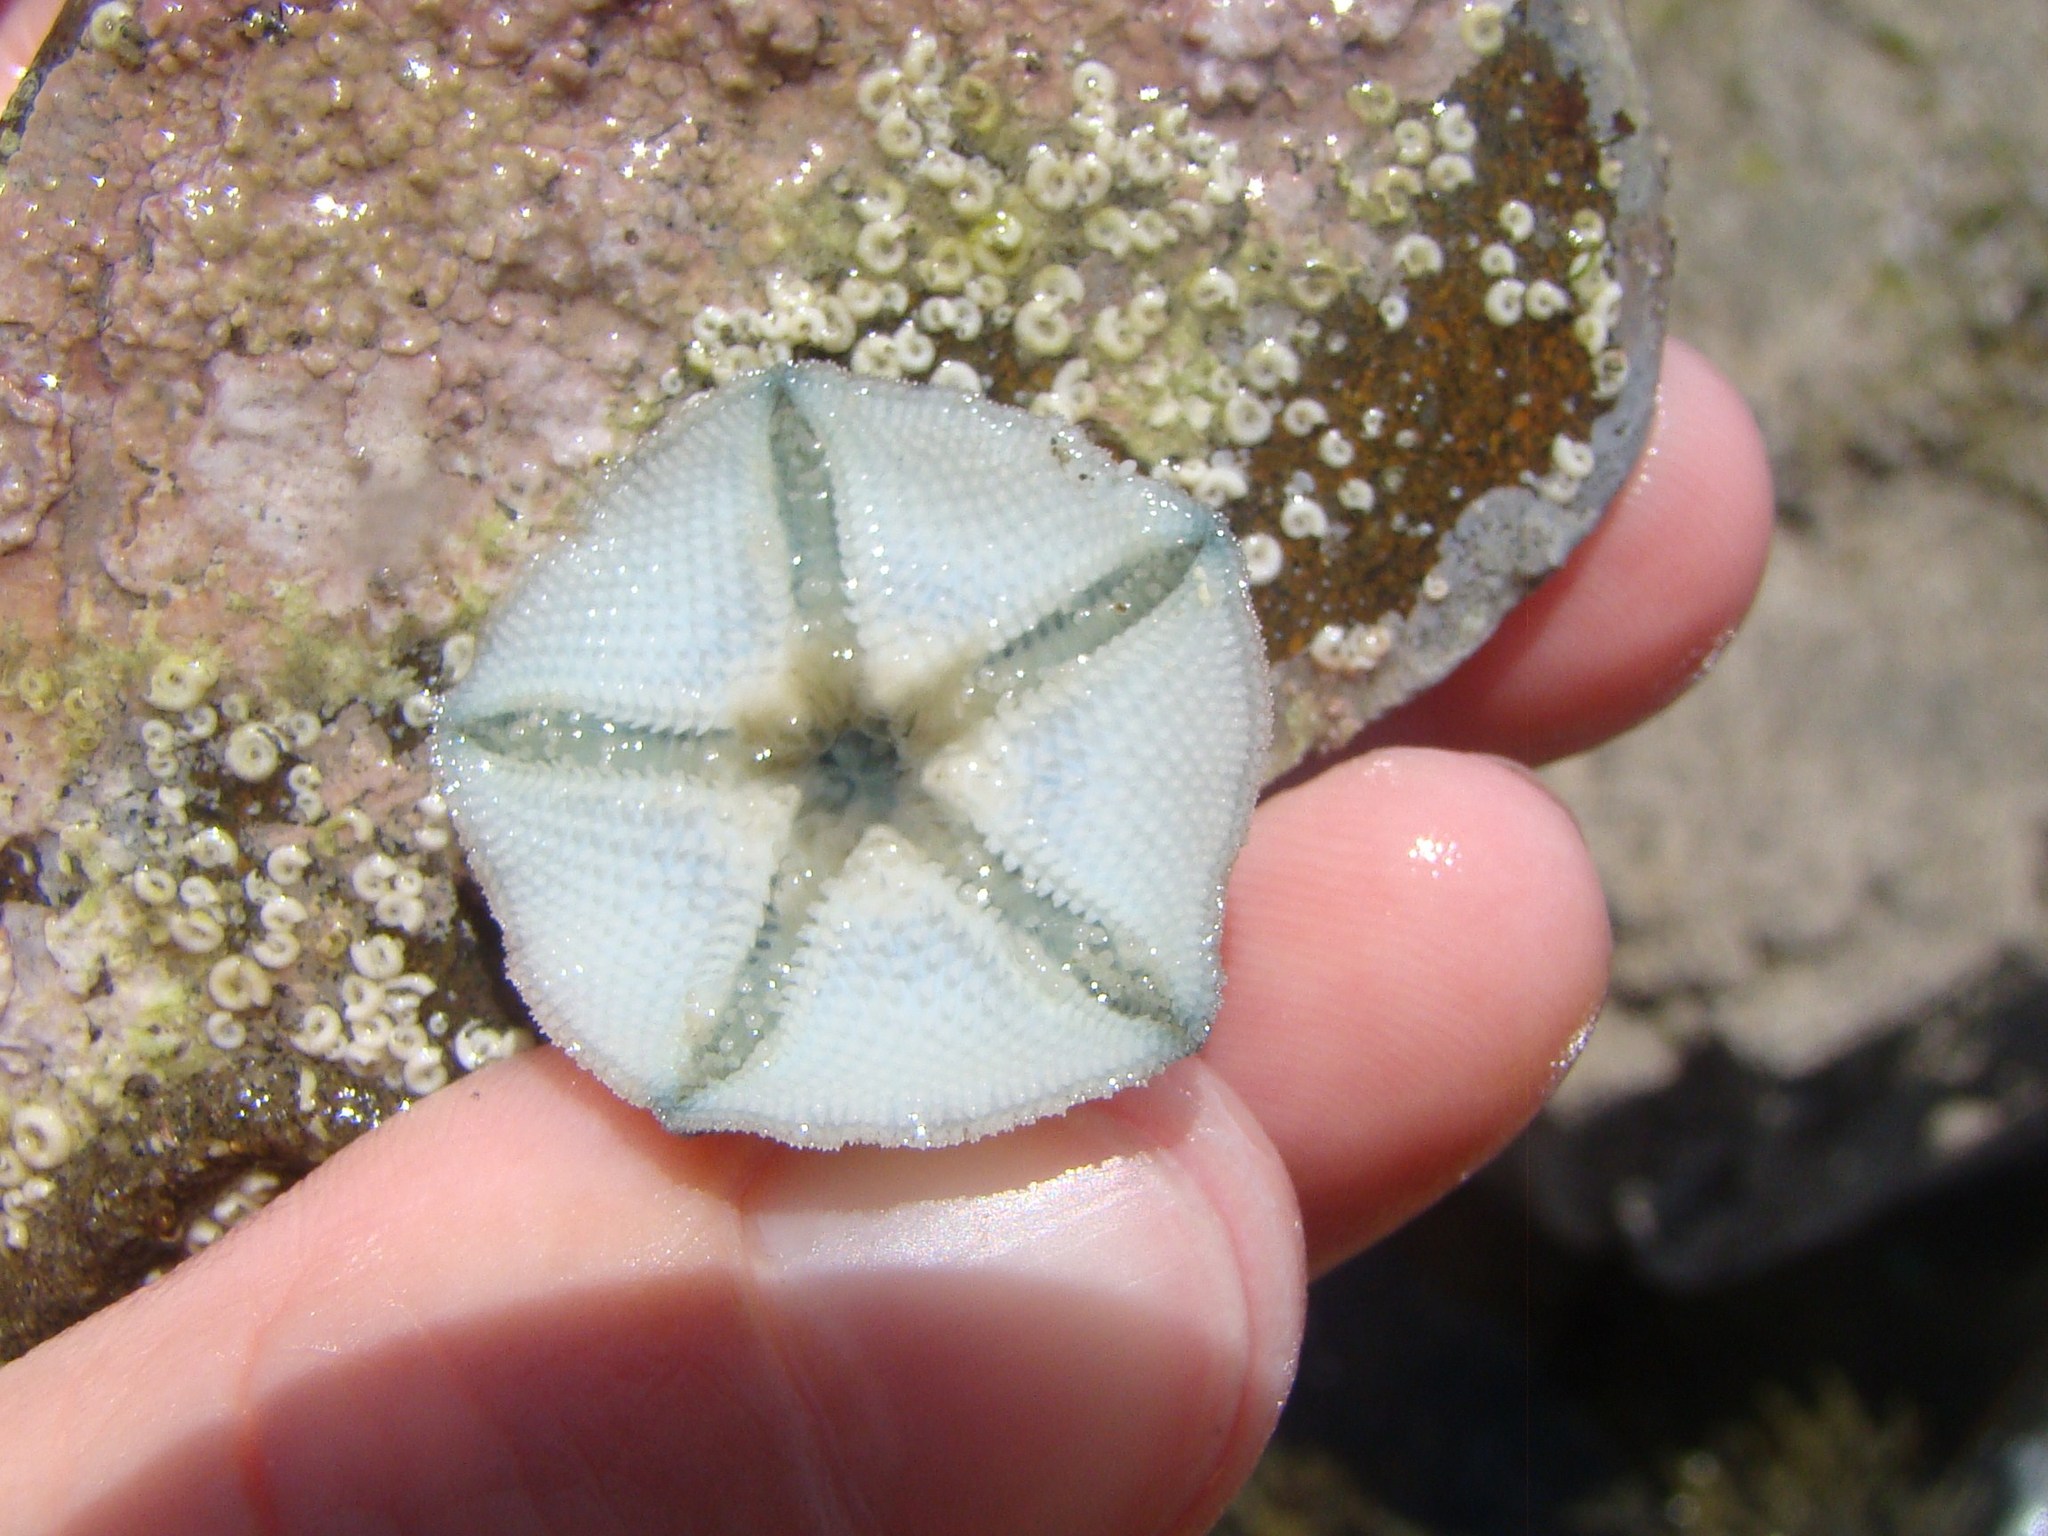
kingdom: Animalia
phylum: Echinodermata
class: Asteroidea
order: Valvatida
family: Asterinidae
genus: Meridiastra
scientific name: Meridiastra mortenseni
